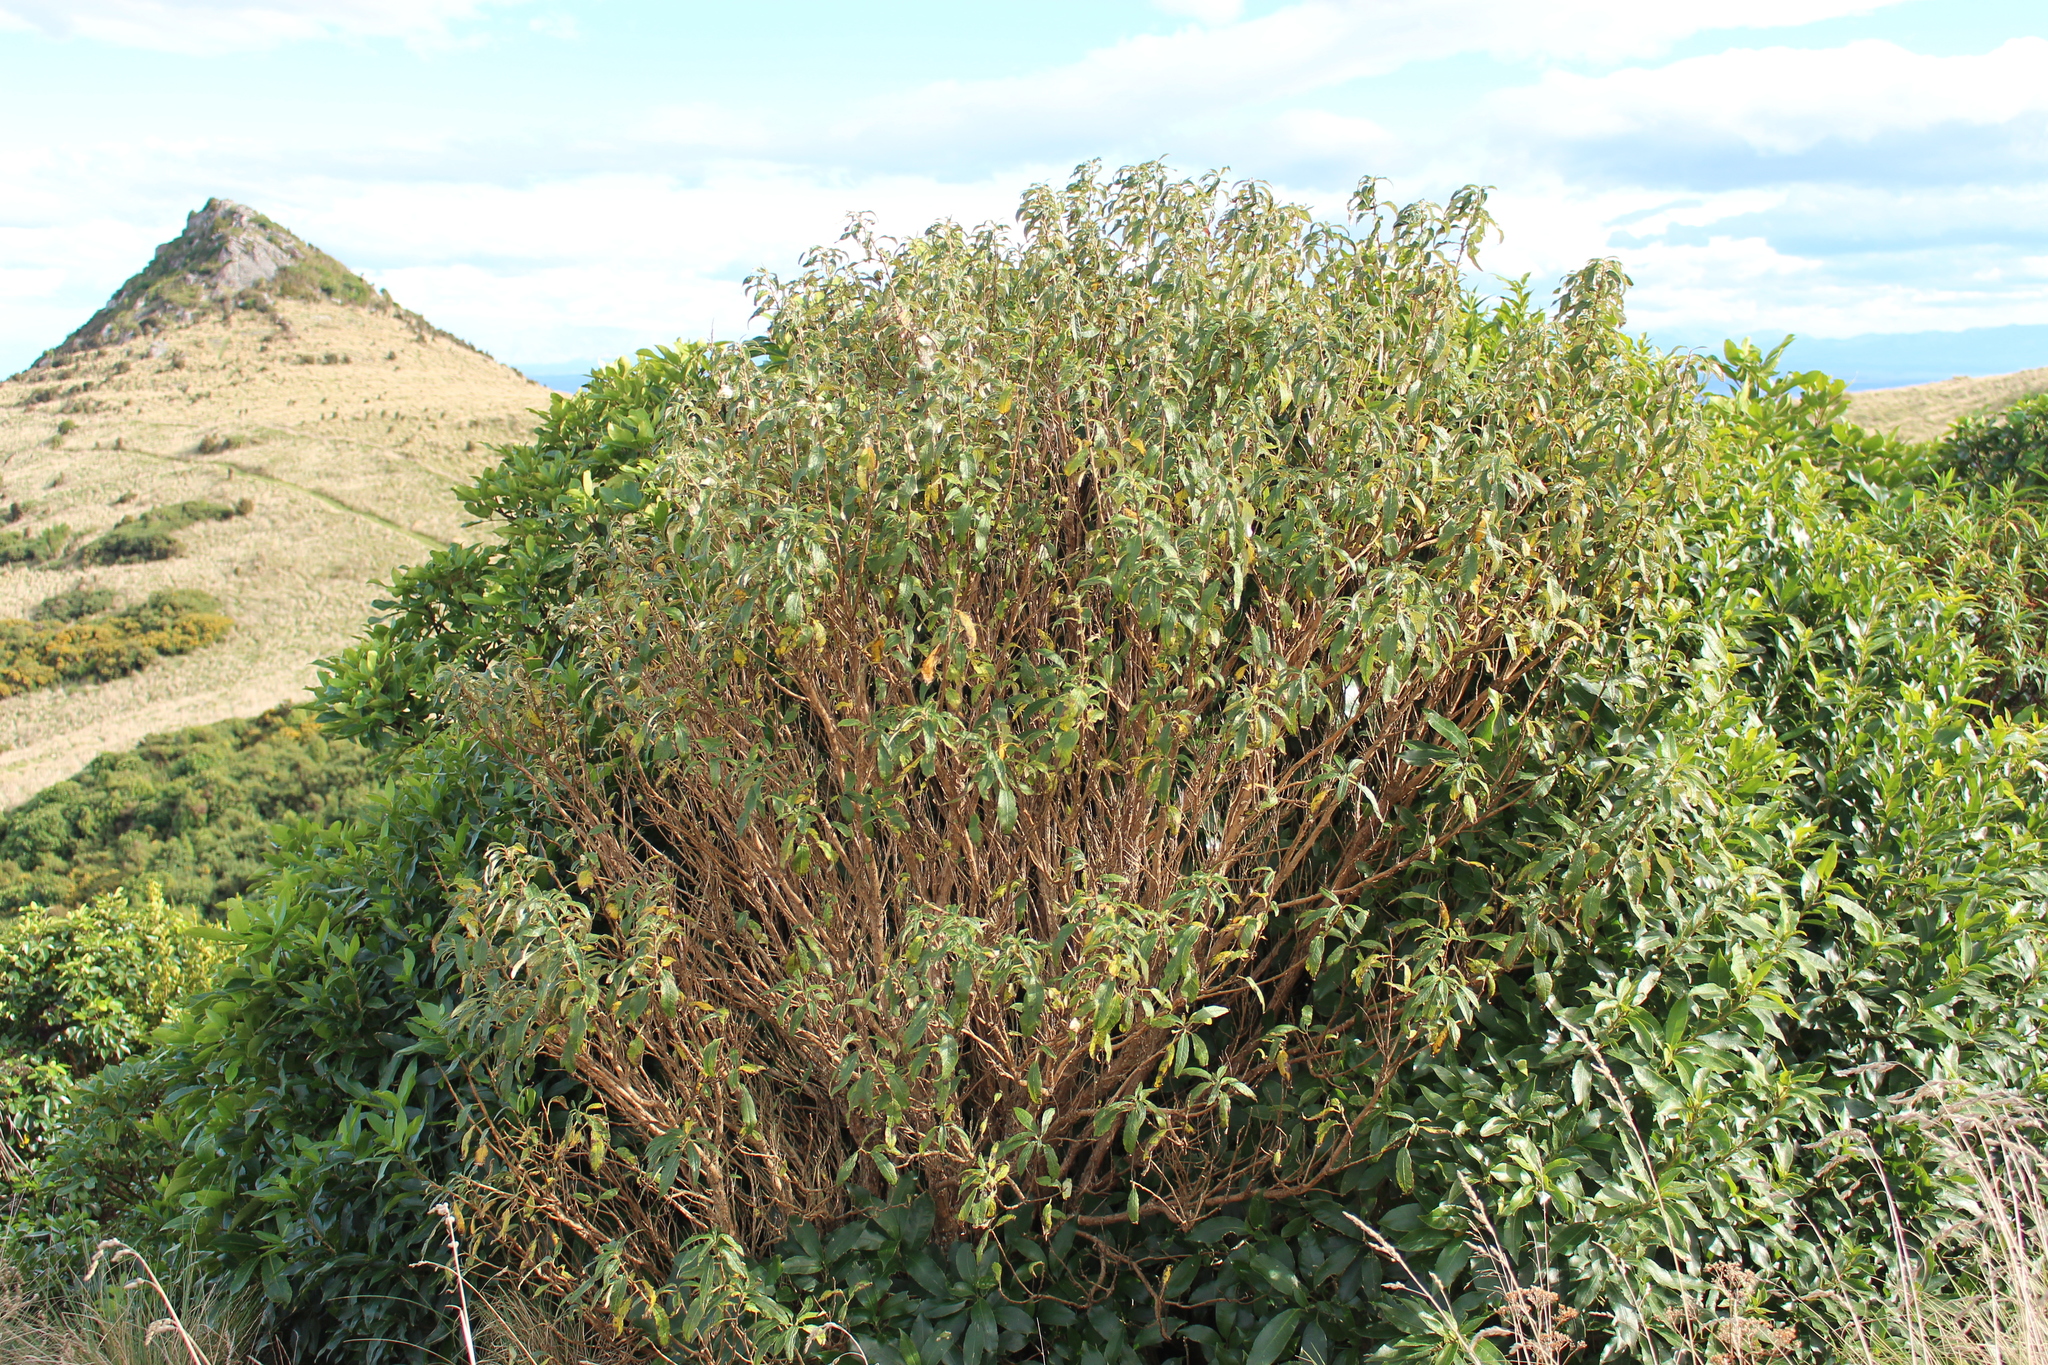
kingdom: Plantae
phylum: Tracheophyta
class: Magnoliopsida
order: Myrtales
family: Onagraceae
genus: Fuchsia
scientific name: Fuchsia excorticata
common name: Tree fuchsia
